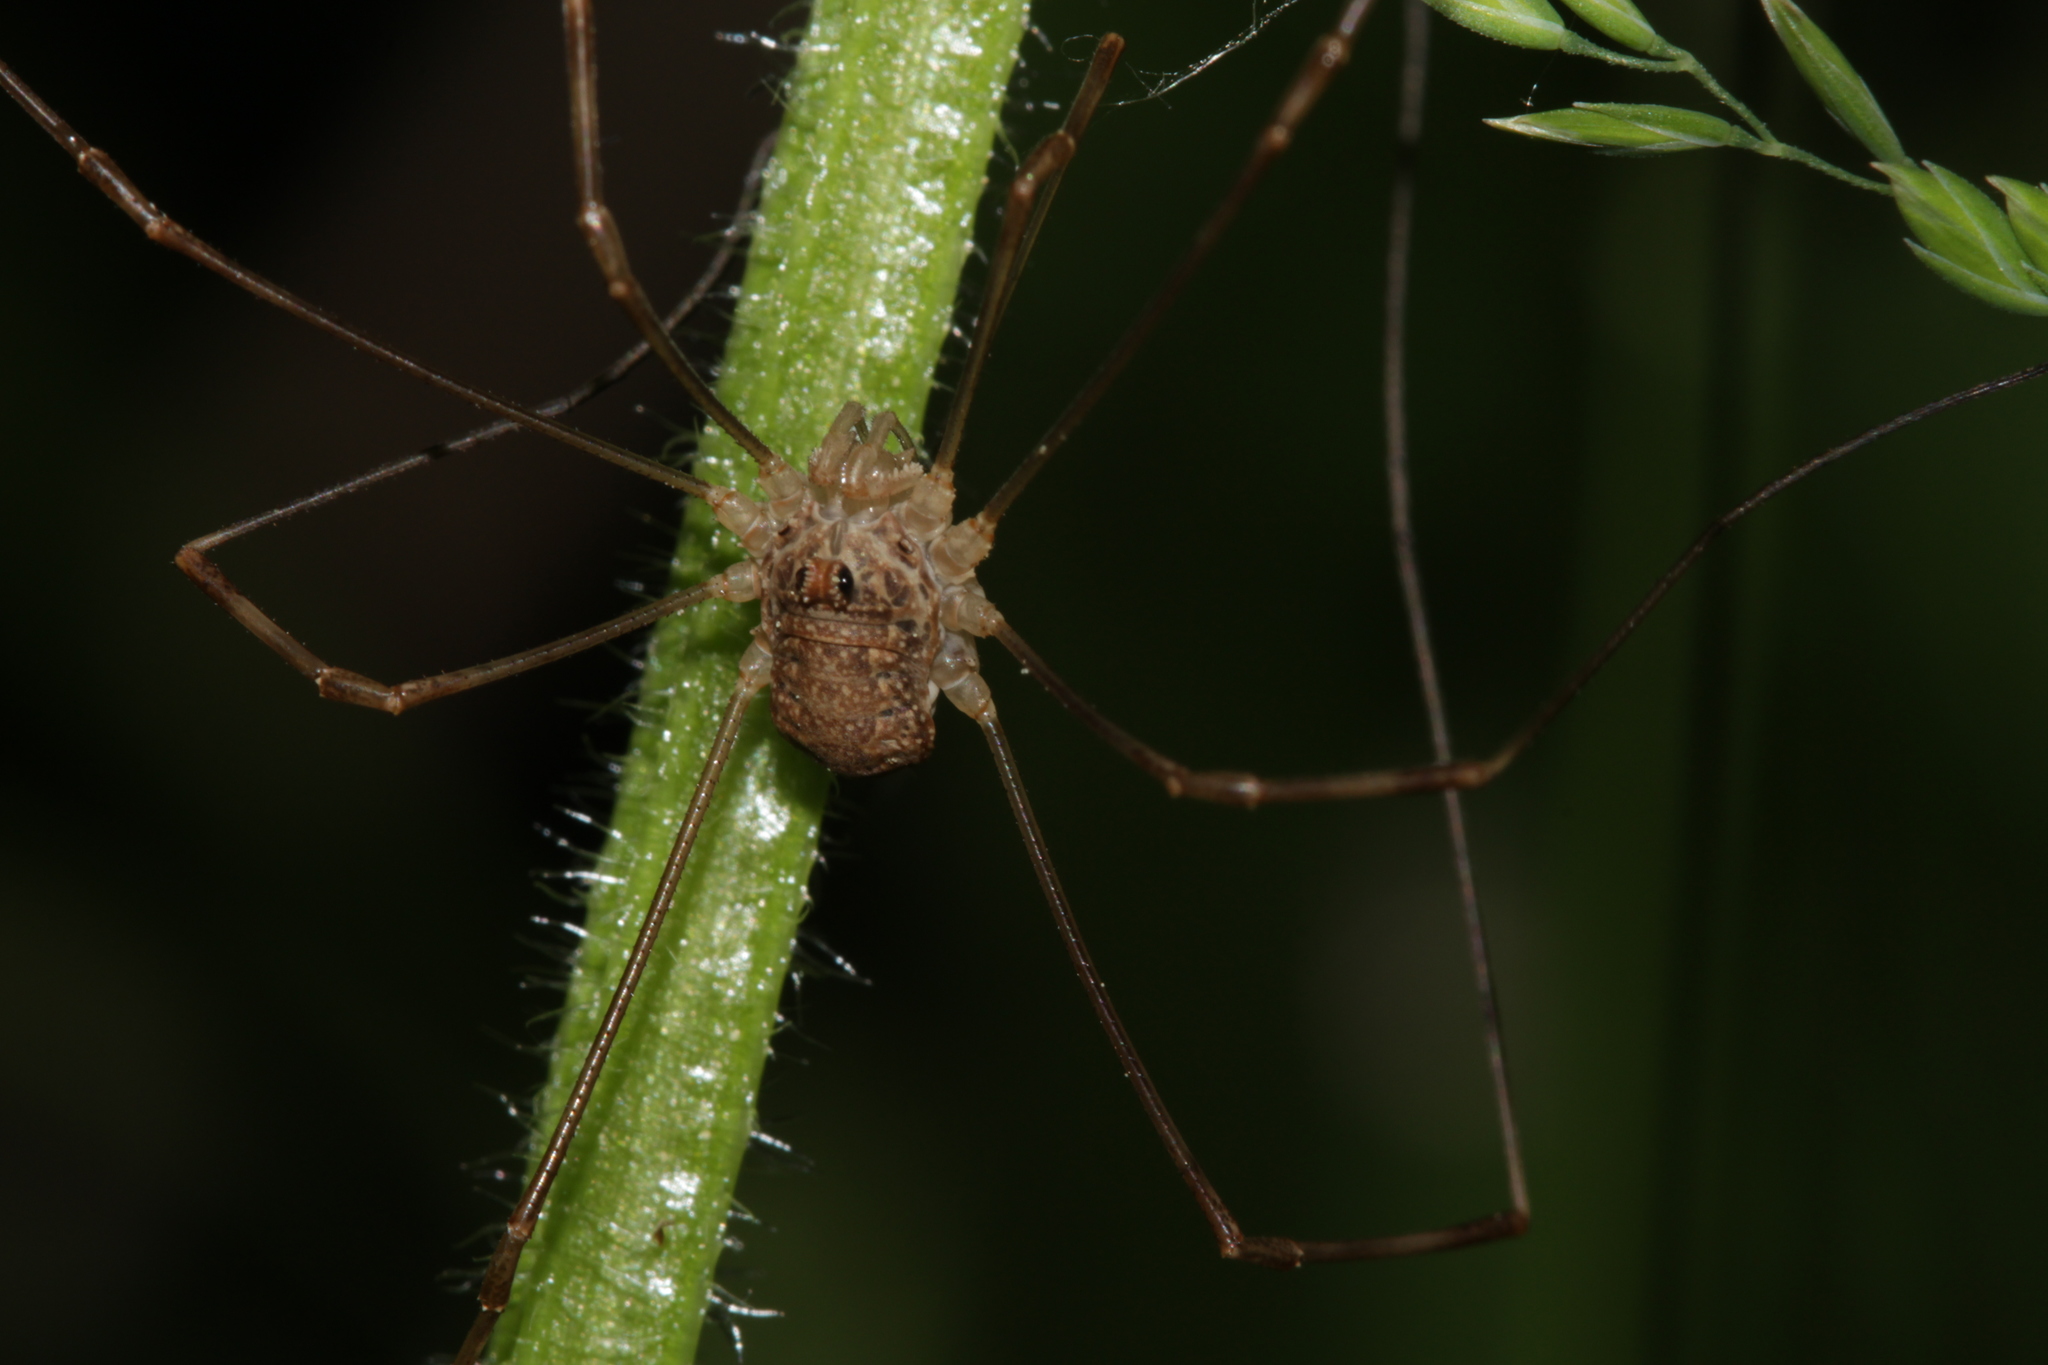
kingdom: Animalia
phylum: Arthropoda
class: Arachnida
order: Opiliones
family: Phalangiidae
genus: Rilaena
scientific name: Rilaena triangularis
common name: Spring harvestman
